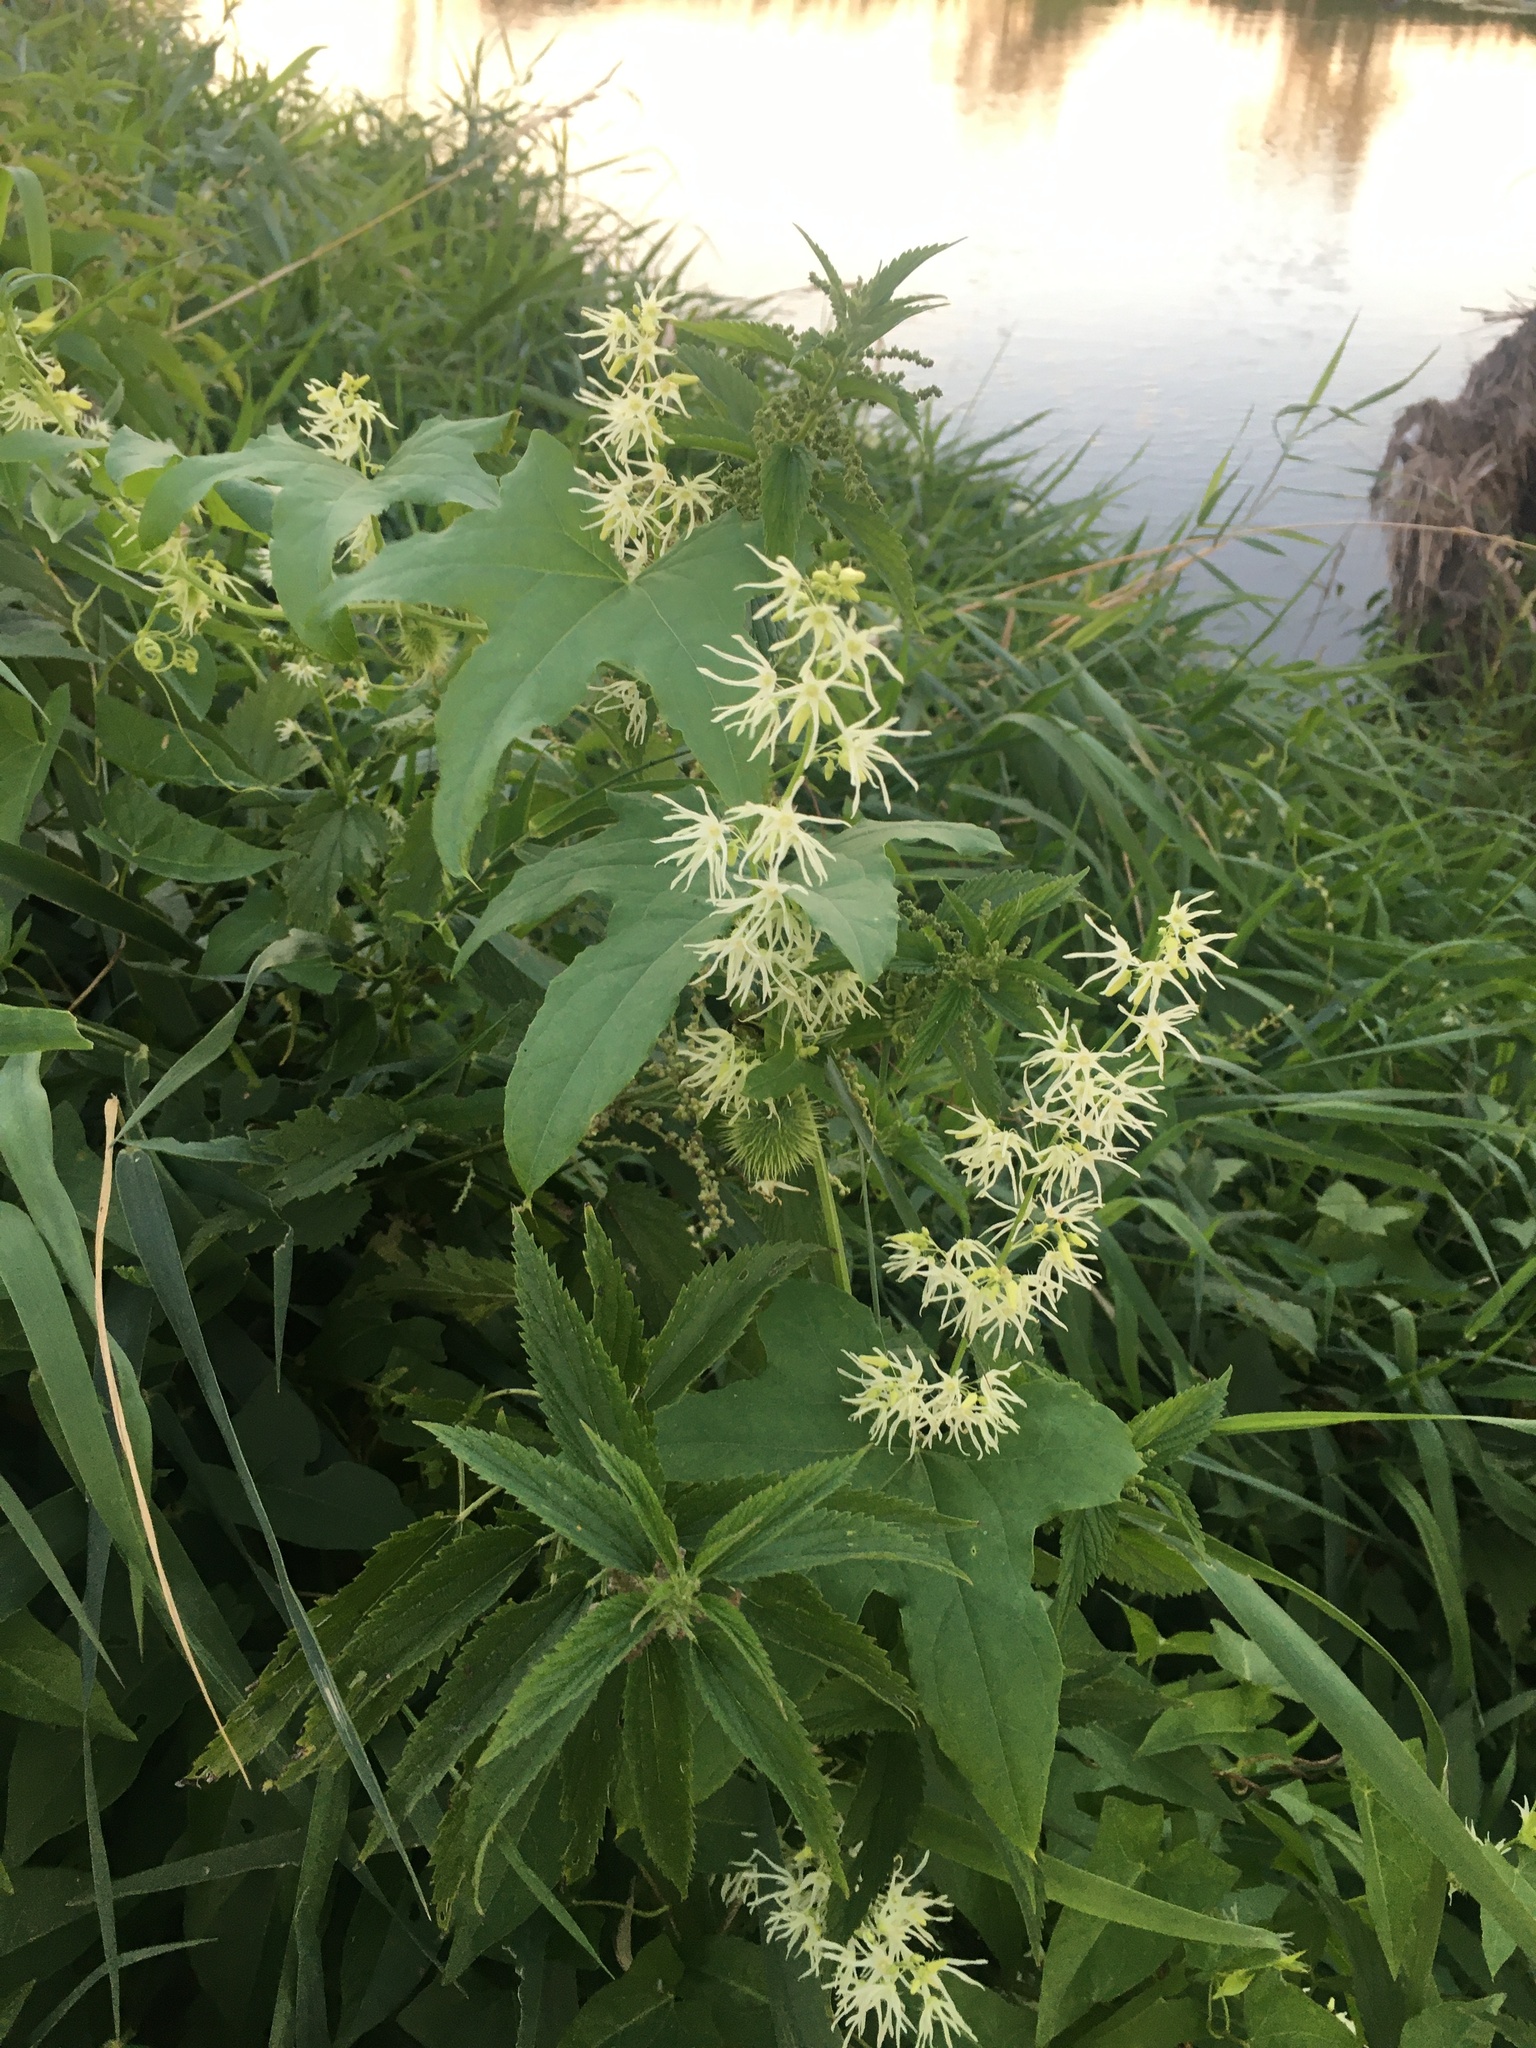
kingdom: Plantae
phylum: Tracheophyta
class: Magnoliopsida
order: Cucurbitales
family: Cucurbitaceae
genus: Echinocystis
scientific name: Echinocystis lobata
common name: Wild cucumber
